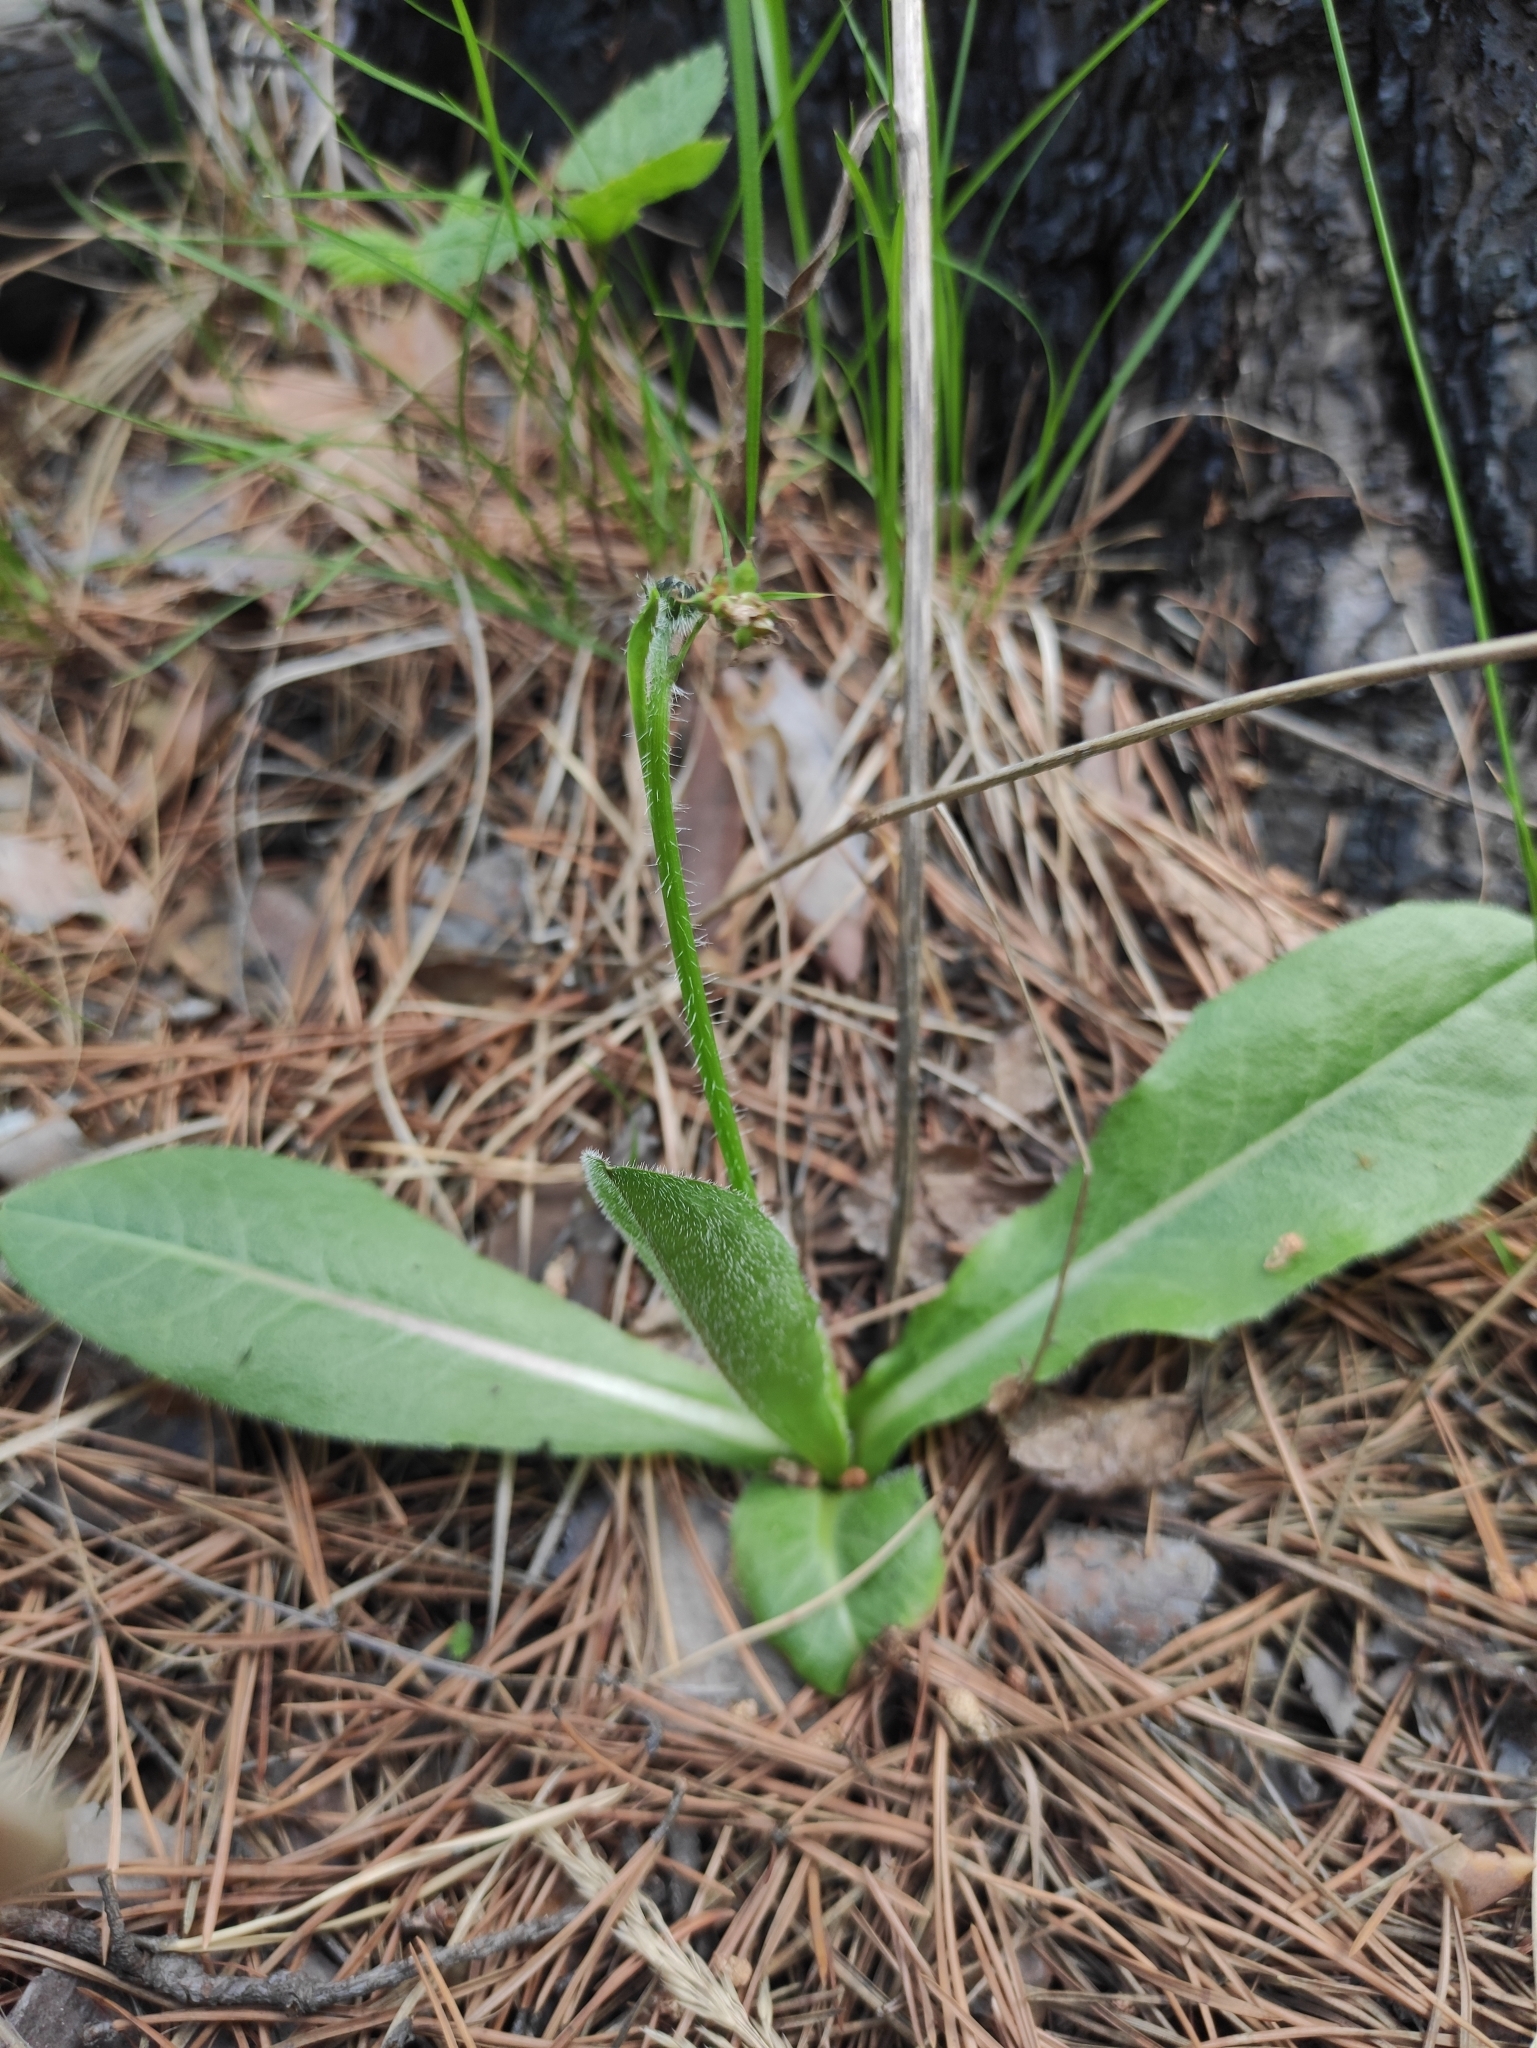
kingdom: Plantae
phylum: Tracheophyta
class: Magnoliopsida
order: Asterales
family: Asteraceae
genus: Trommsdorffia
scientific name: Trommsdorffia maculata
